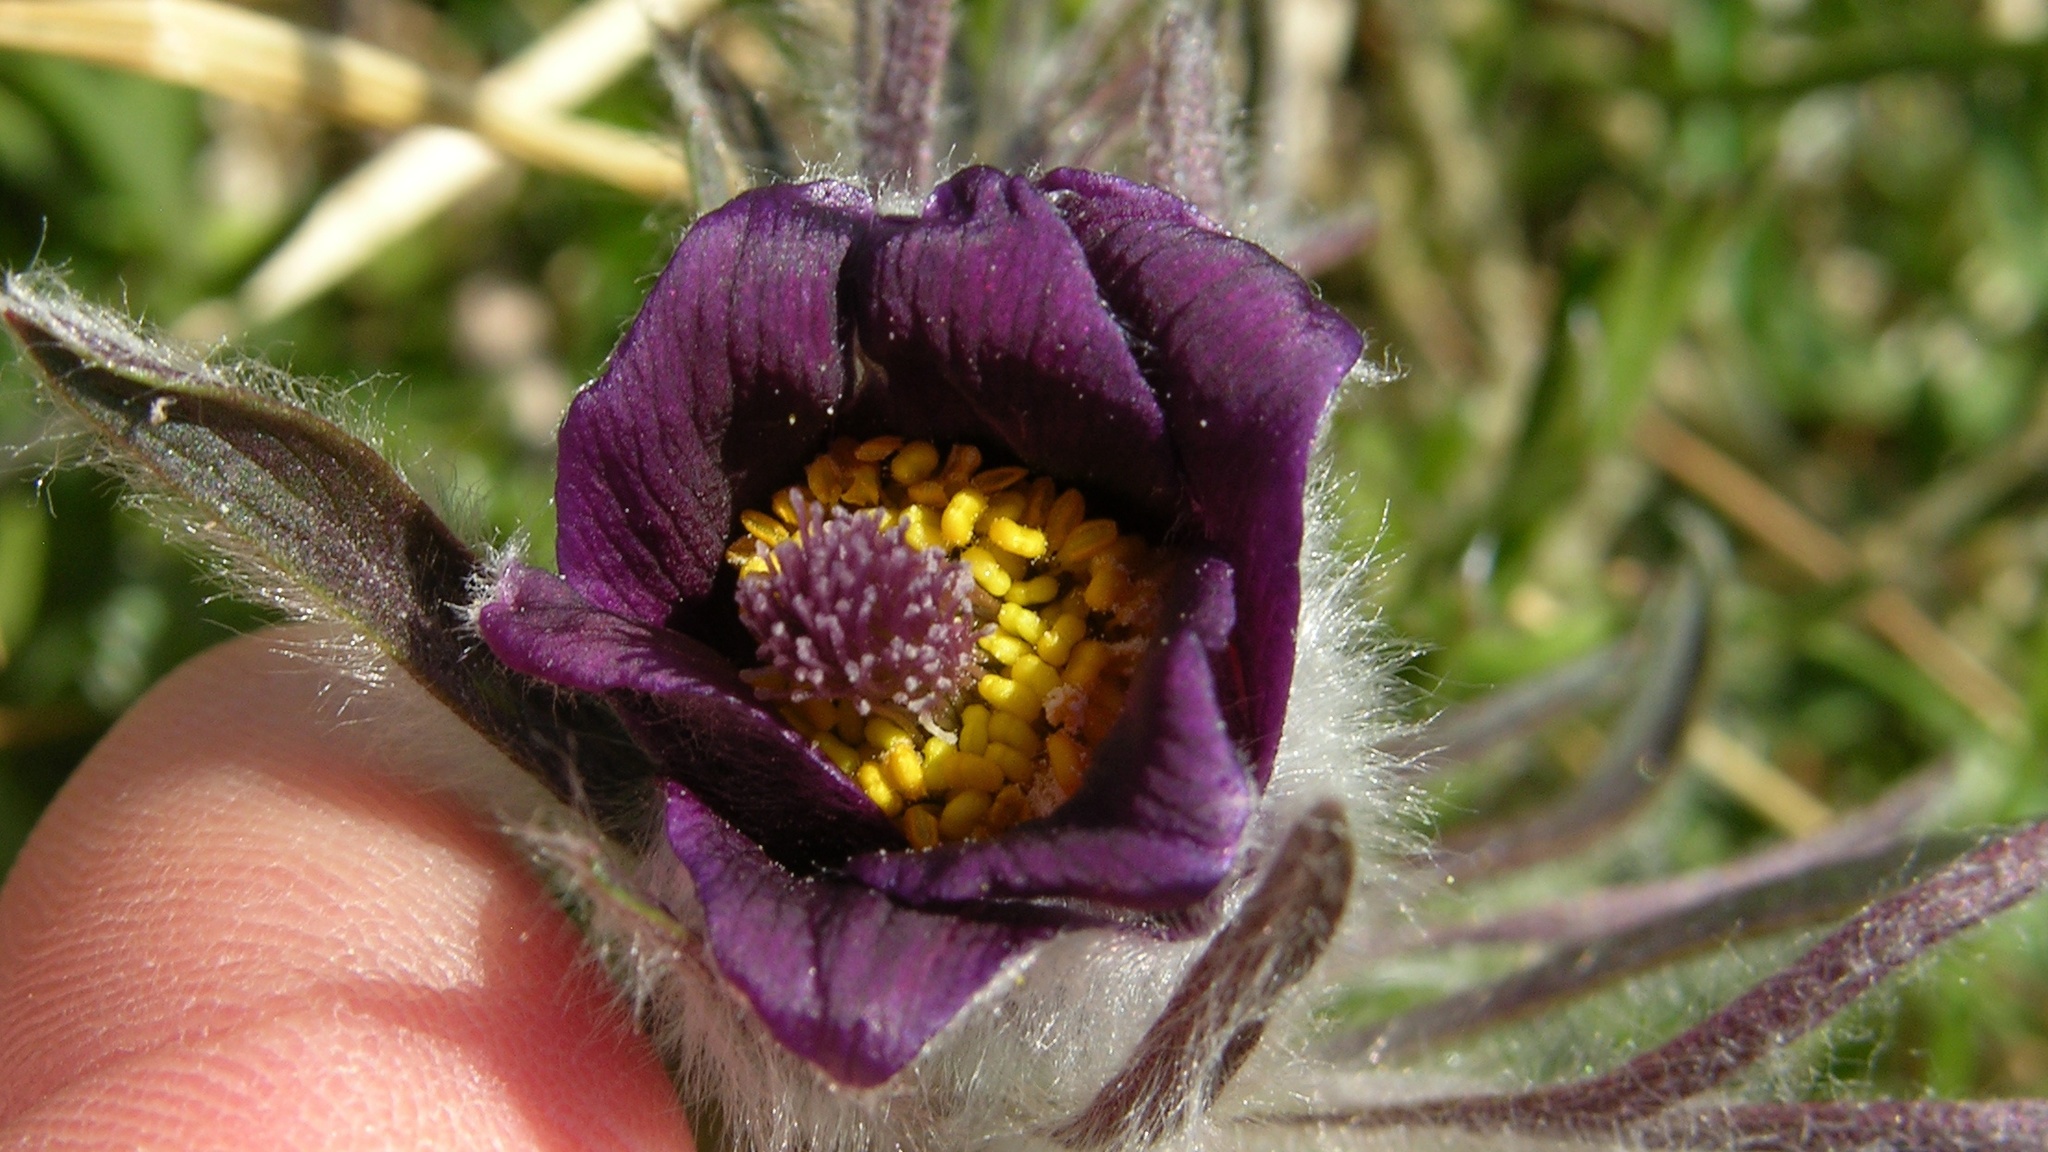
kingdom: Plantae
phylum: Tracheophyta
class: Magnoliopsida
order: Ranunculales
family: Ranunculaceae
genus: Pulsatilla
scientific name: Pulsatilla pratensis
